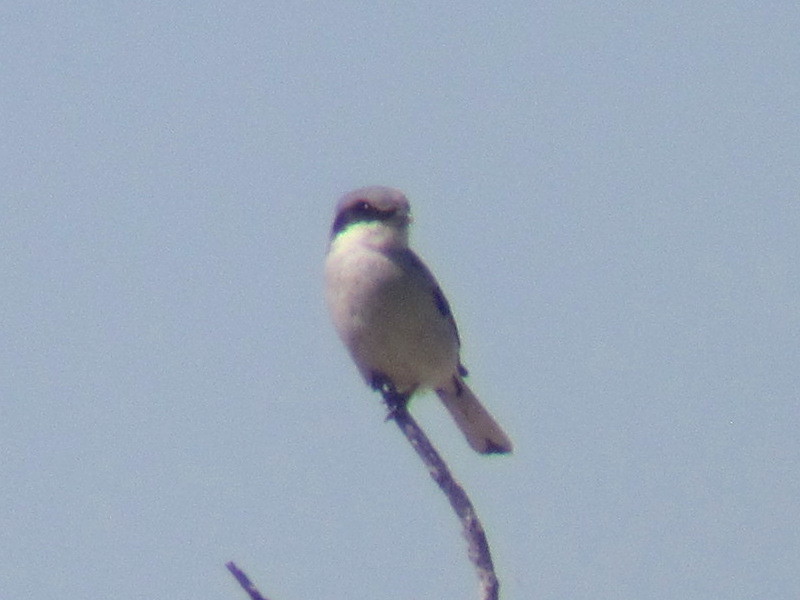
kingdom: Animalia
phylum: Chordata
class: Aves
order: Passeriformes
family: Laniidae
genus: Lanius
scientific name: Lanius ludovicianus
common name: Loggerhead shrike
